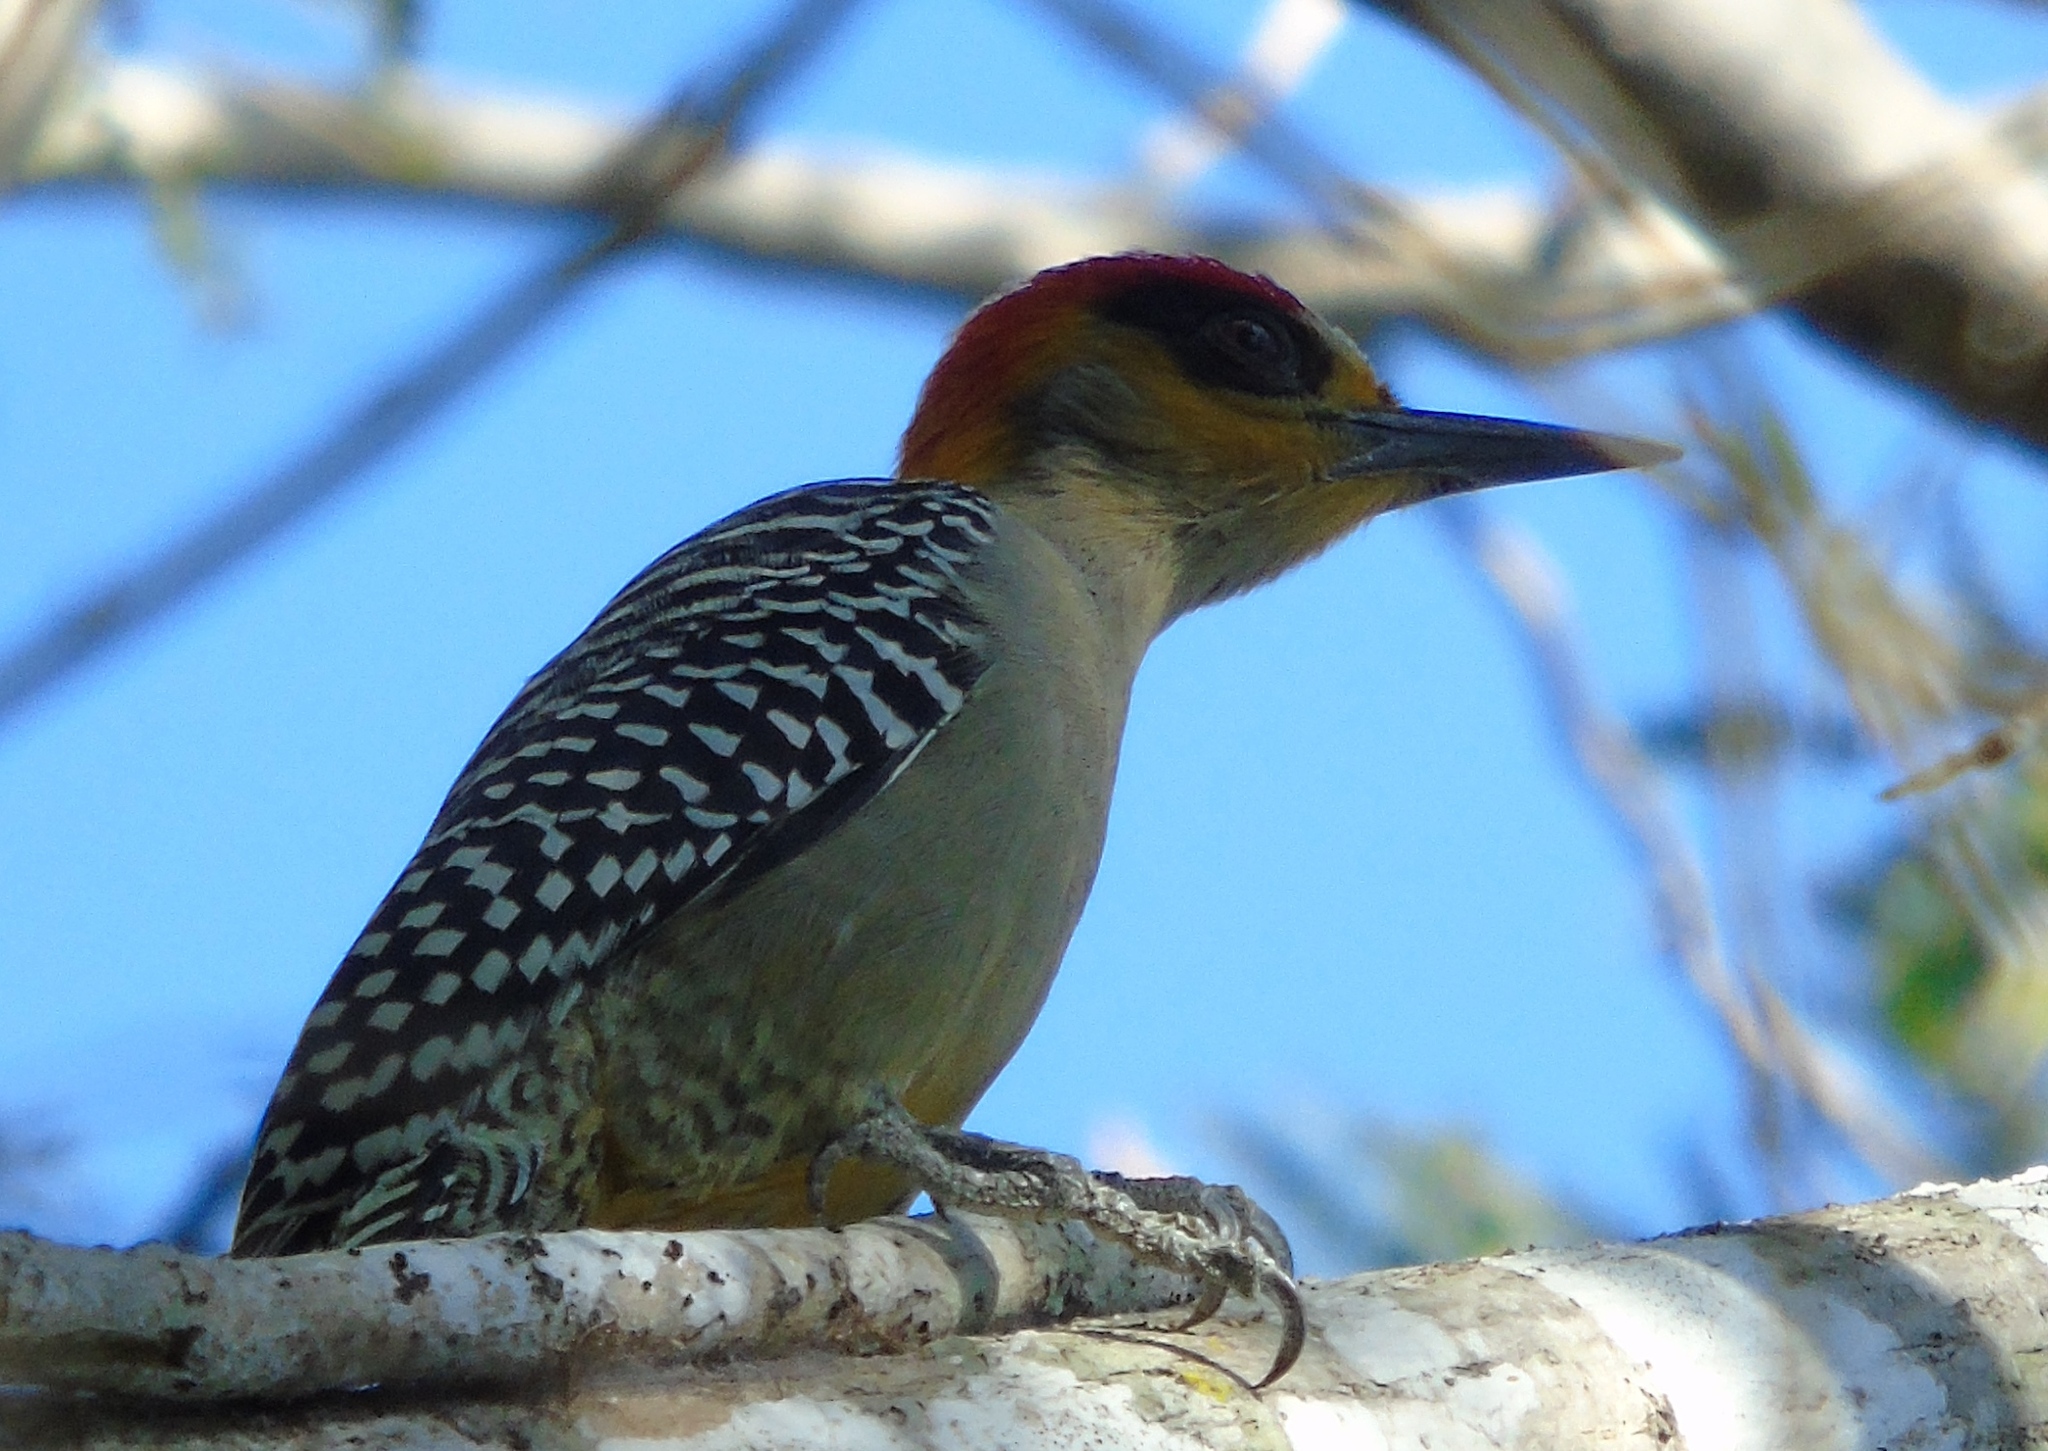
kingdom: Animalia
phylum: Chordata
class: Aves
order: Piciformes
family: Picidae
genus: Melanerpes
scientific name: Melanerpes chrysogenys
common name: Golden-cheeked woodpecker
